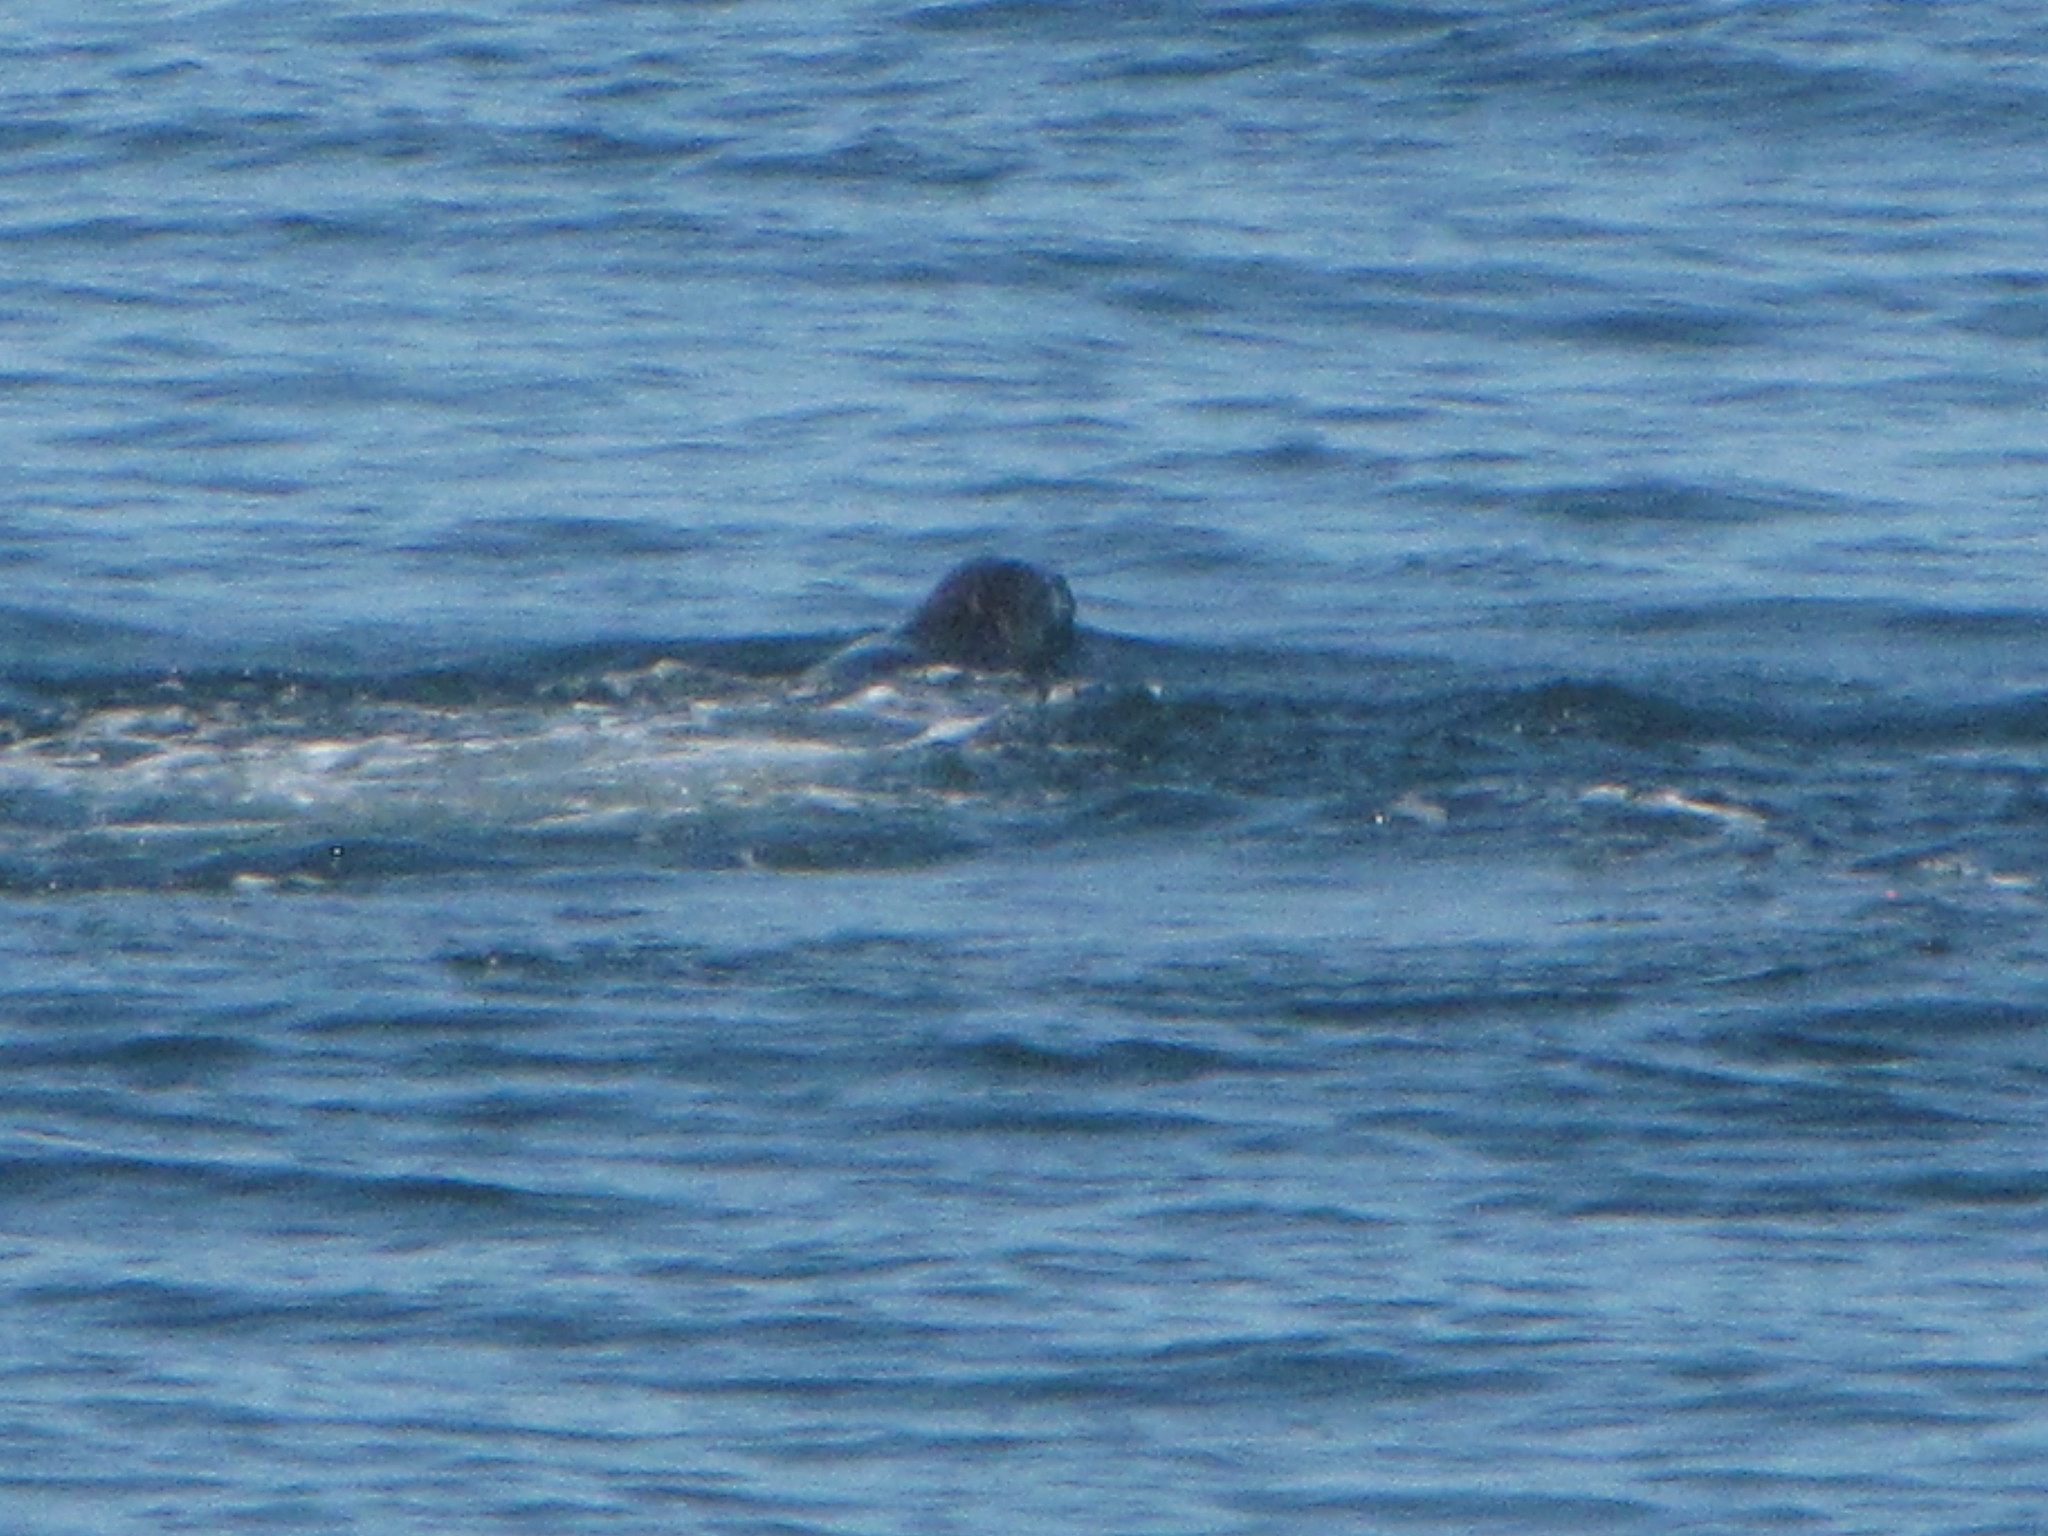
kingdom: Animalia
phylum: Chordata
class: Mammalia
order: Carnivora
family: Phocidae
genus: Phoca
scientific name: Phoca vitulina
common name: Harbor seal
